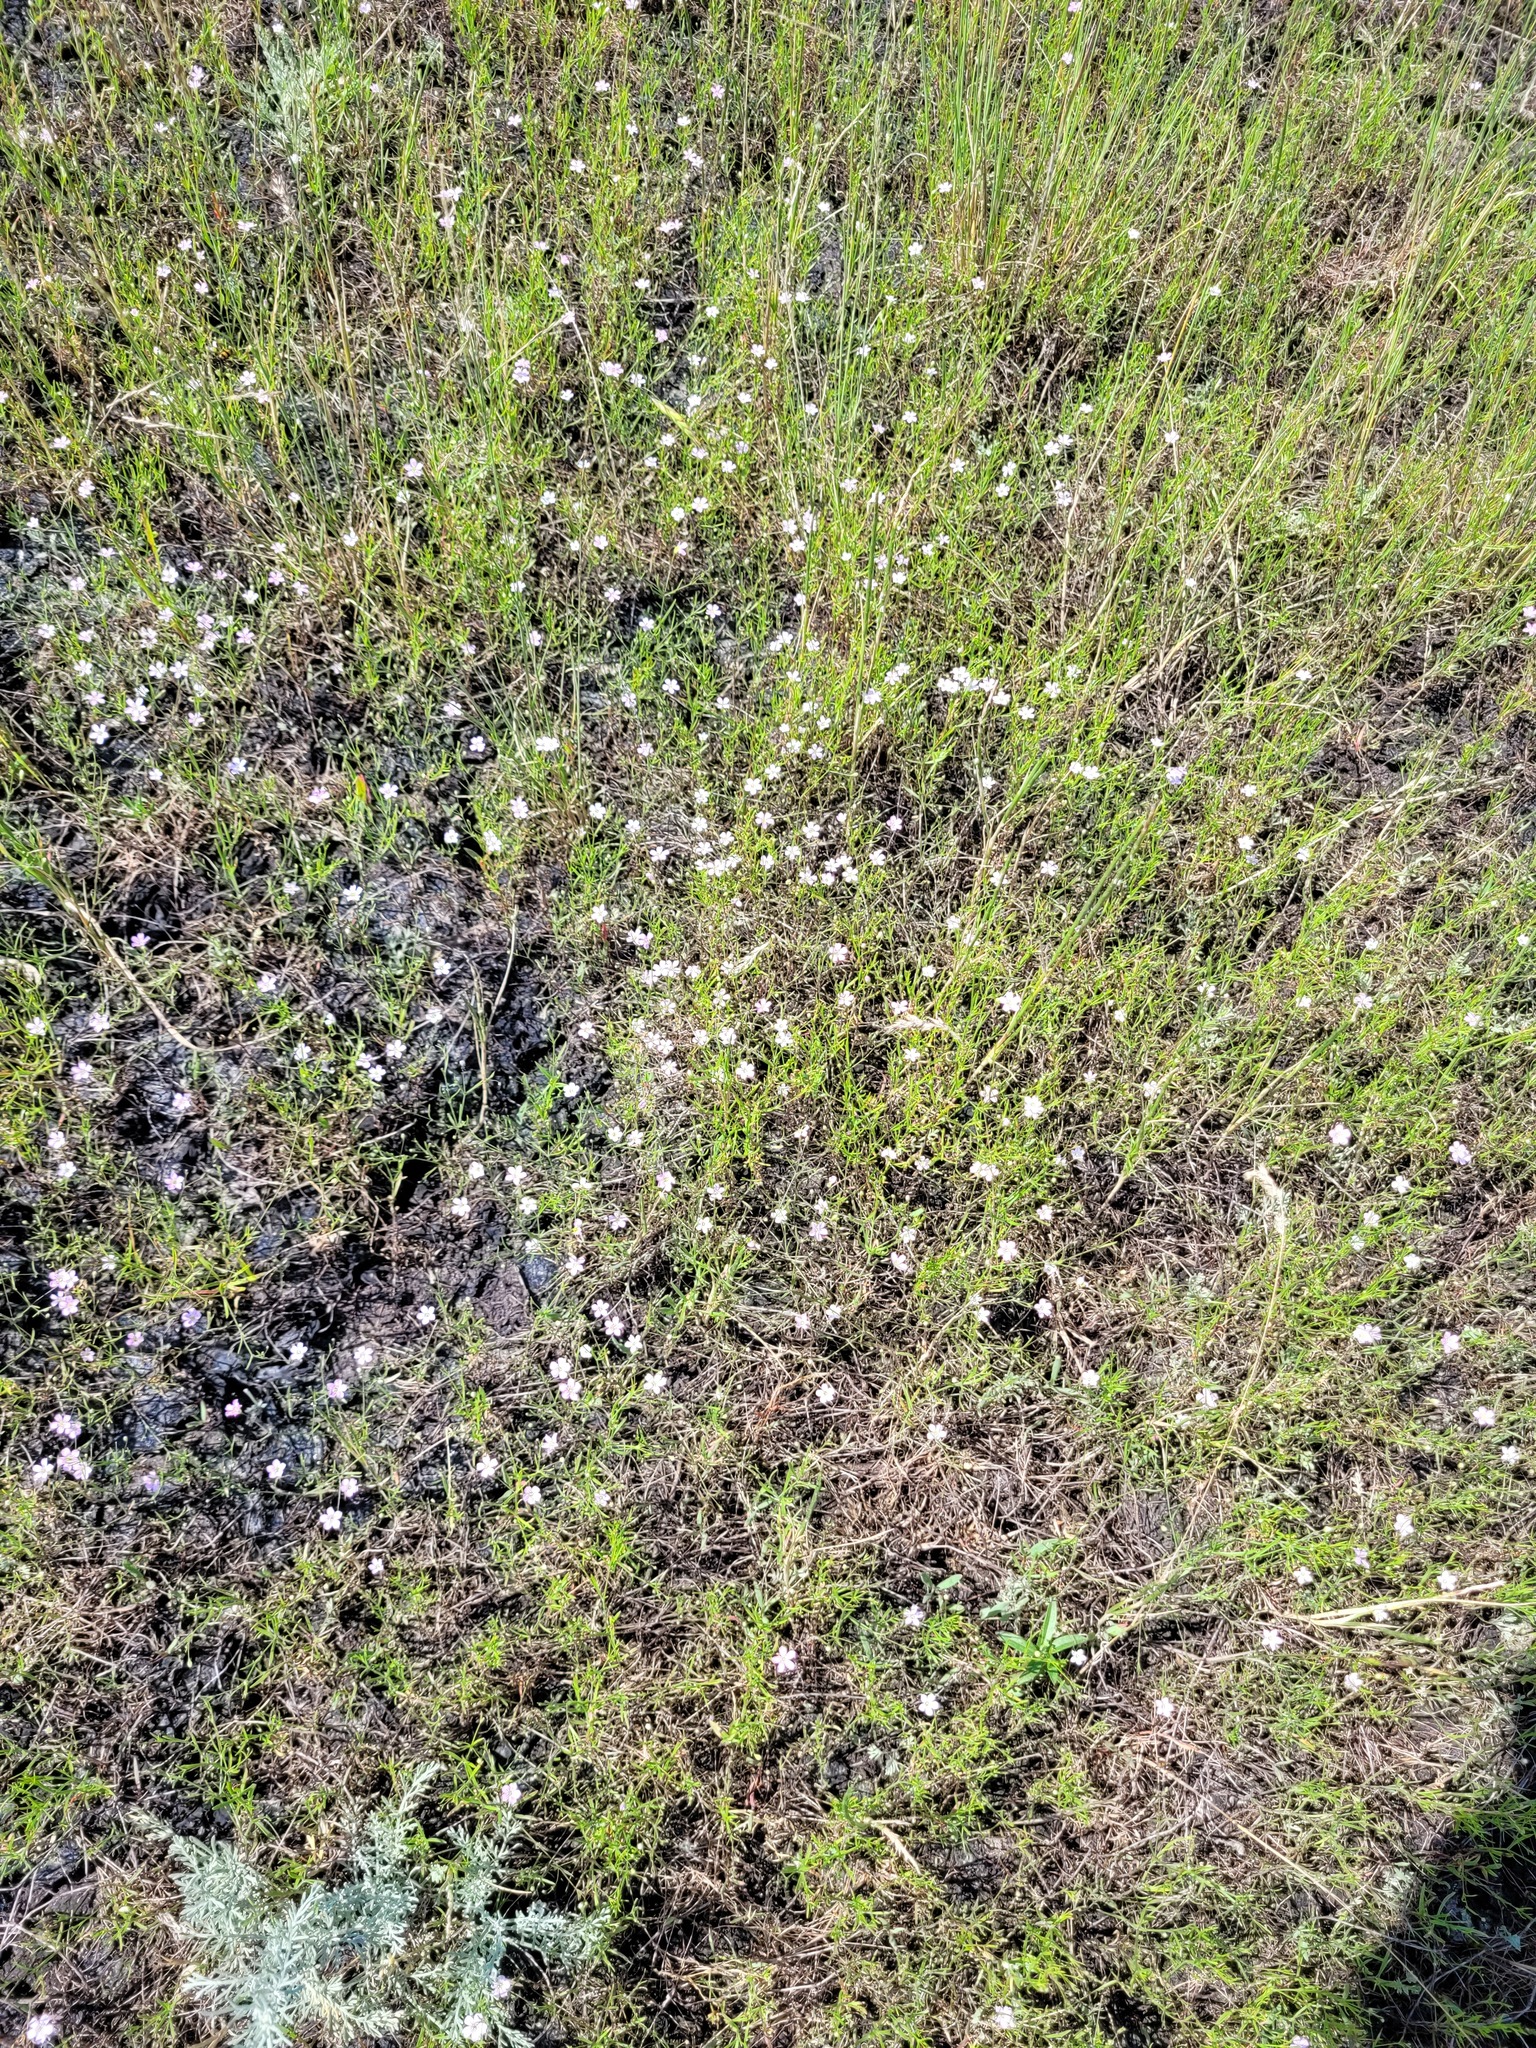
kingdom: Plantae
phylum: Tracheophyta
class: Magnoliopsida
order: Caryophyllales
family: Caryophyllaceae
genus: Psammophiliella
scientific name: Psammophiliella muralis
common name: Cushion baby's-breath
